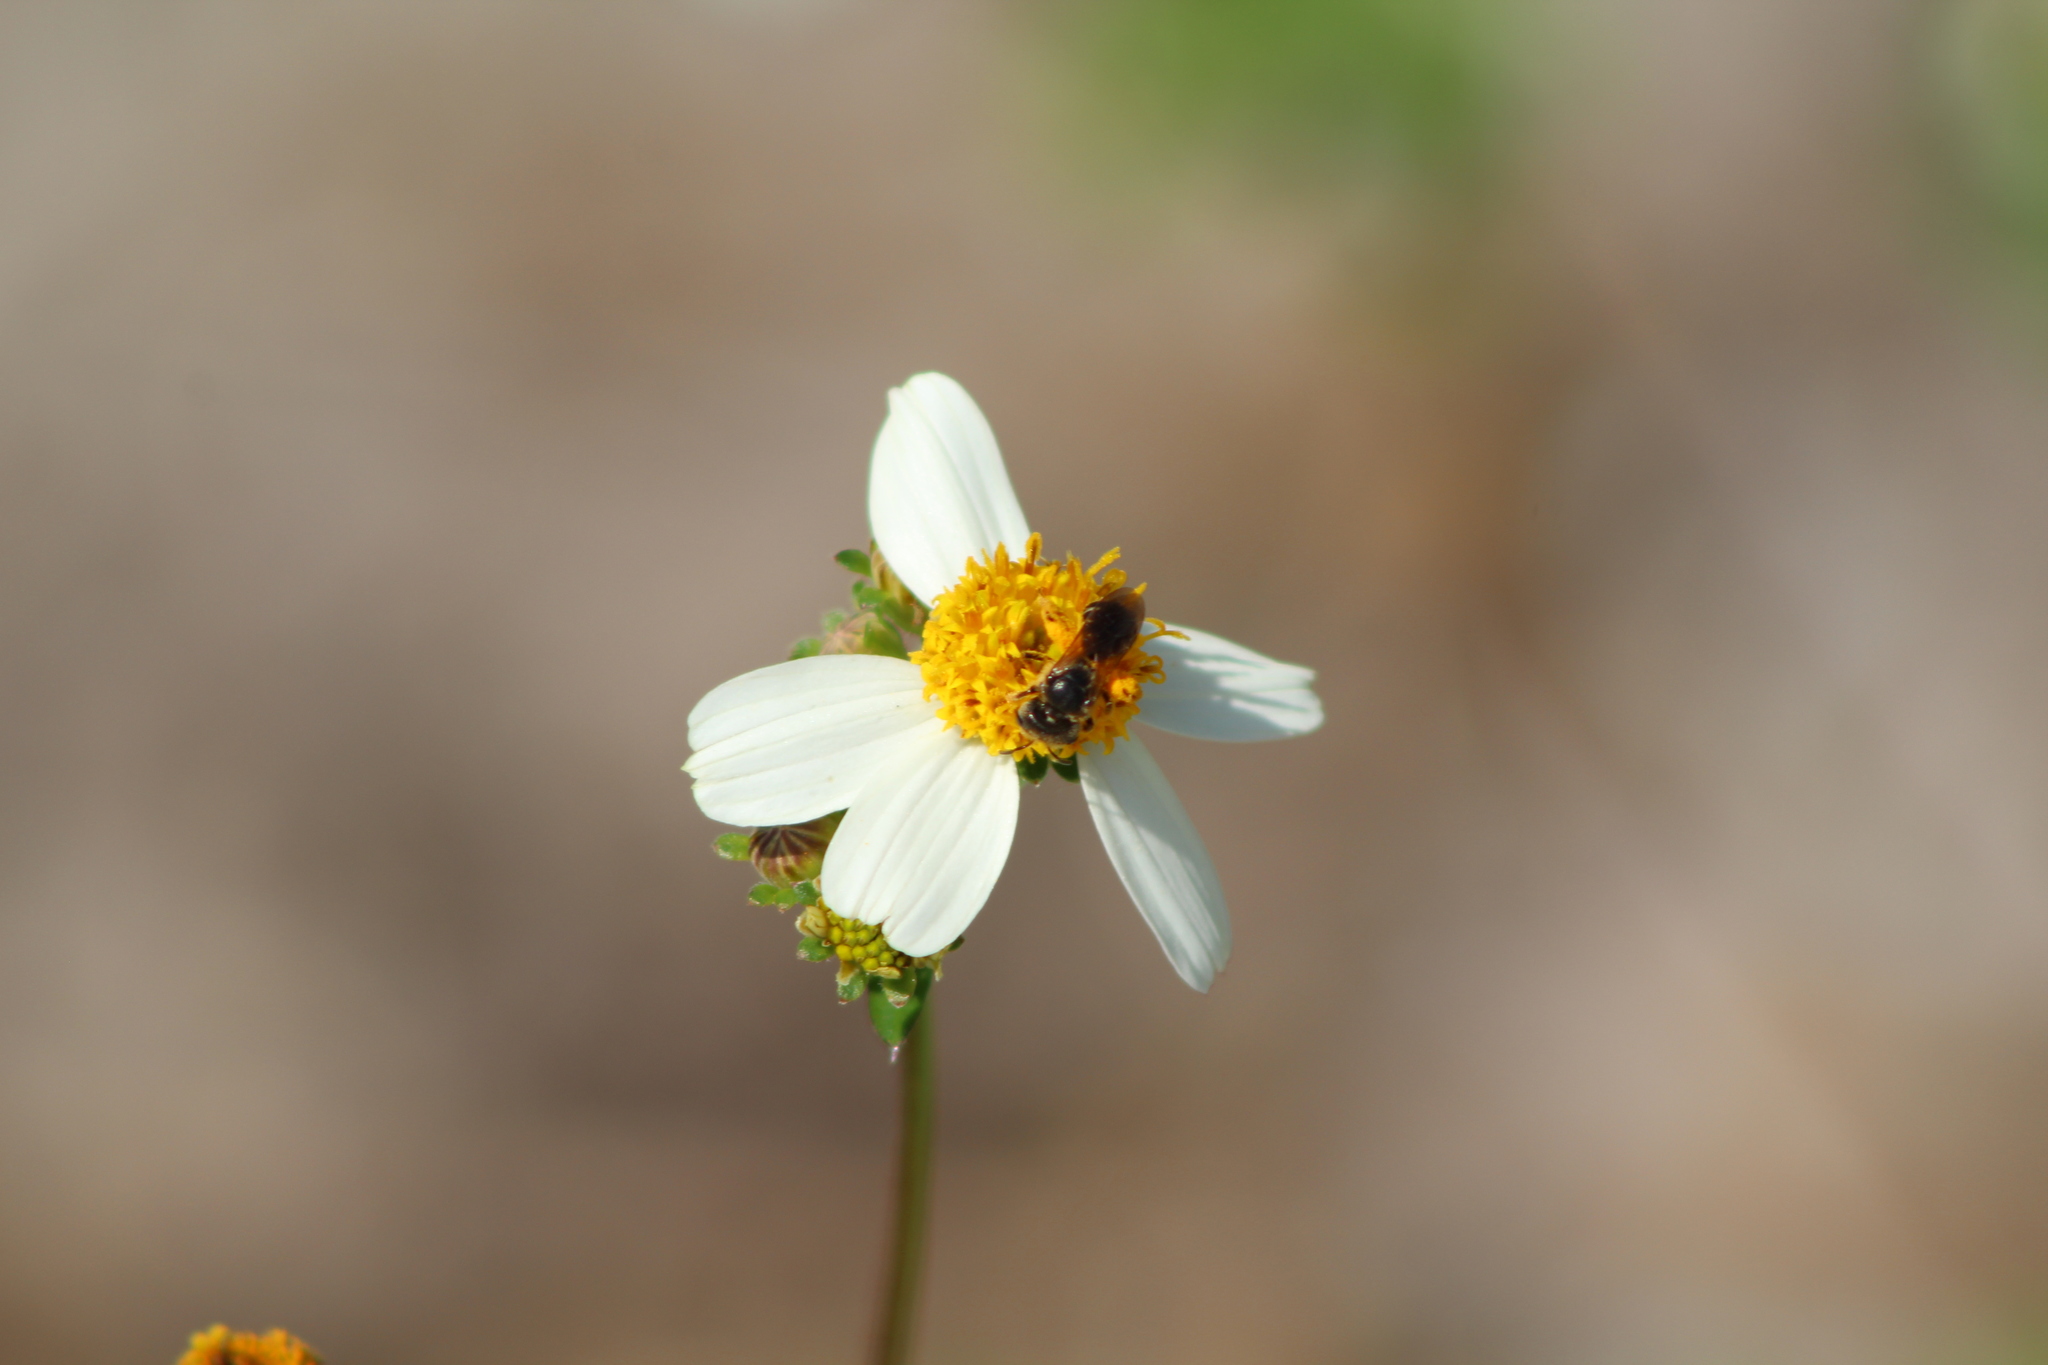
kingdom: Animalia
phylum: Arthropoda
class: Insecta
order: Hymenoptera
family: Halictidae
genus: Halictus
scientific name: Halictus poeyi
